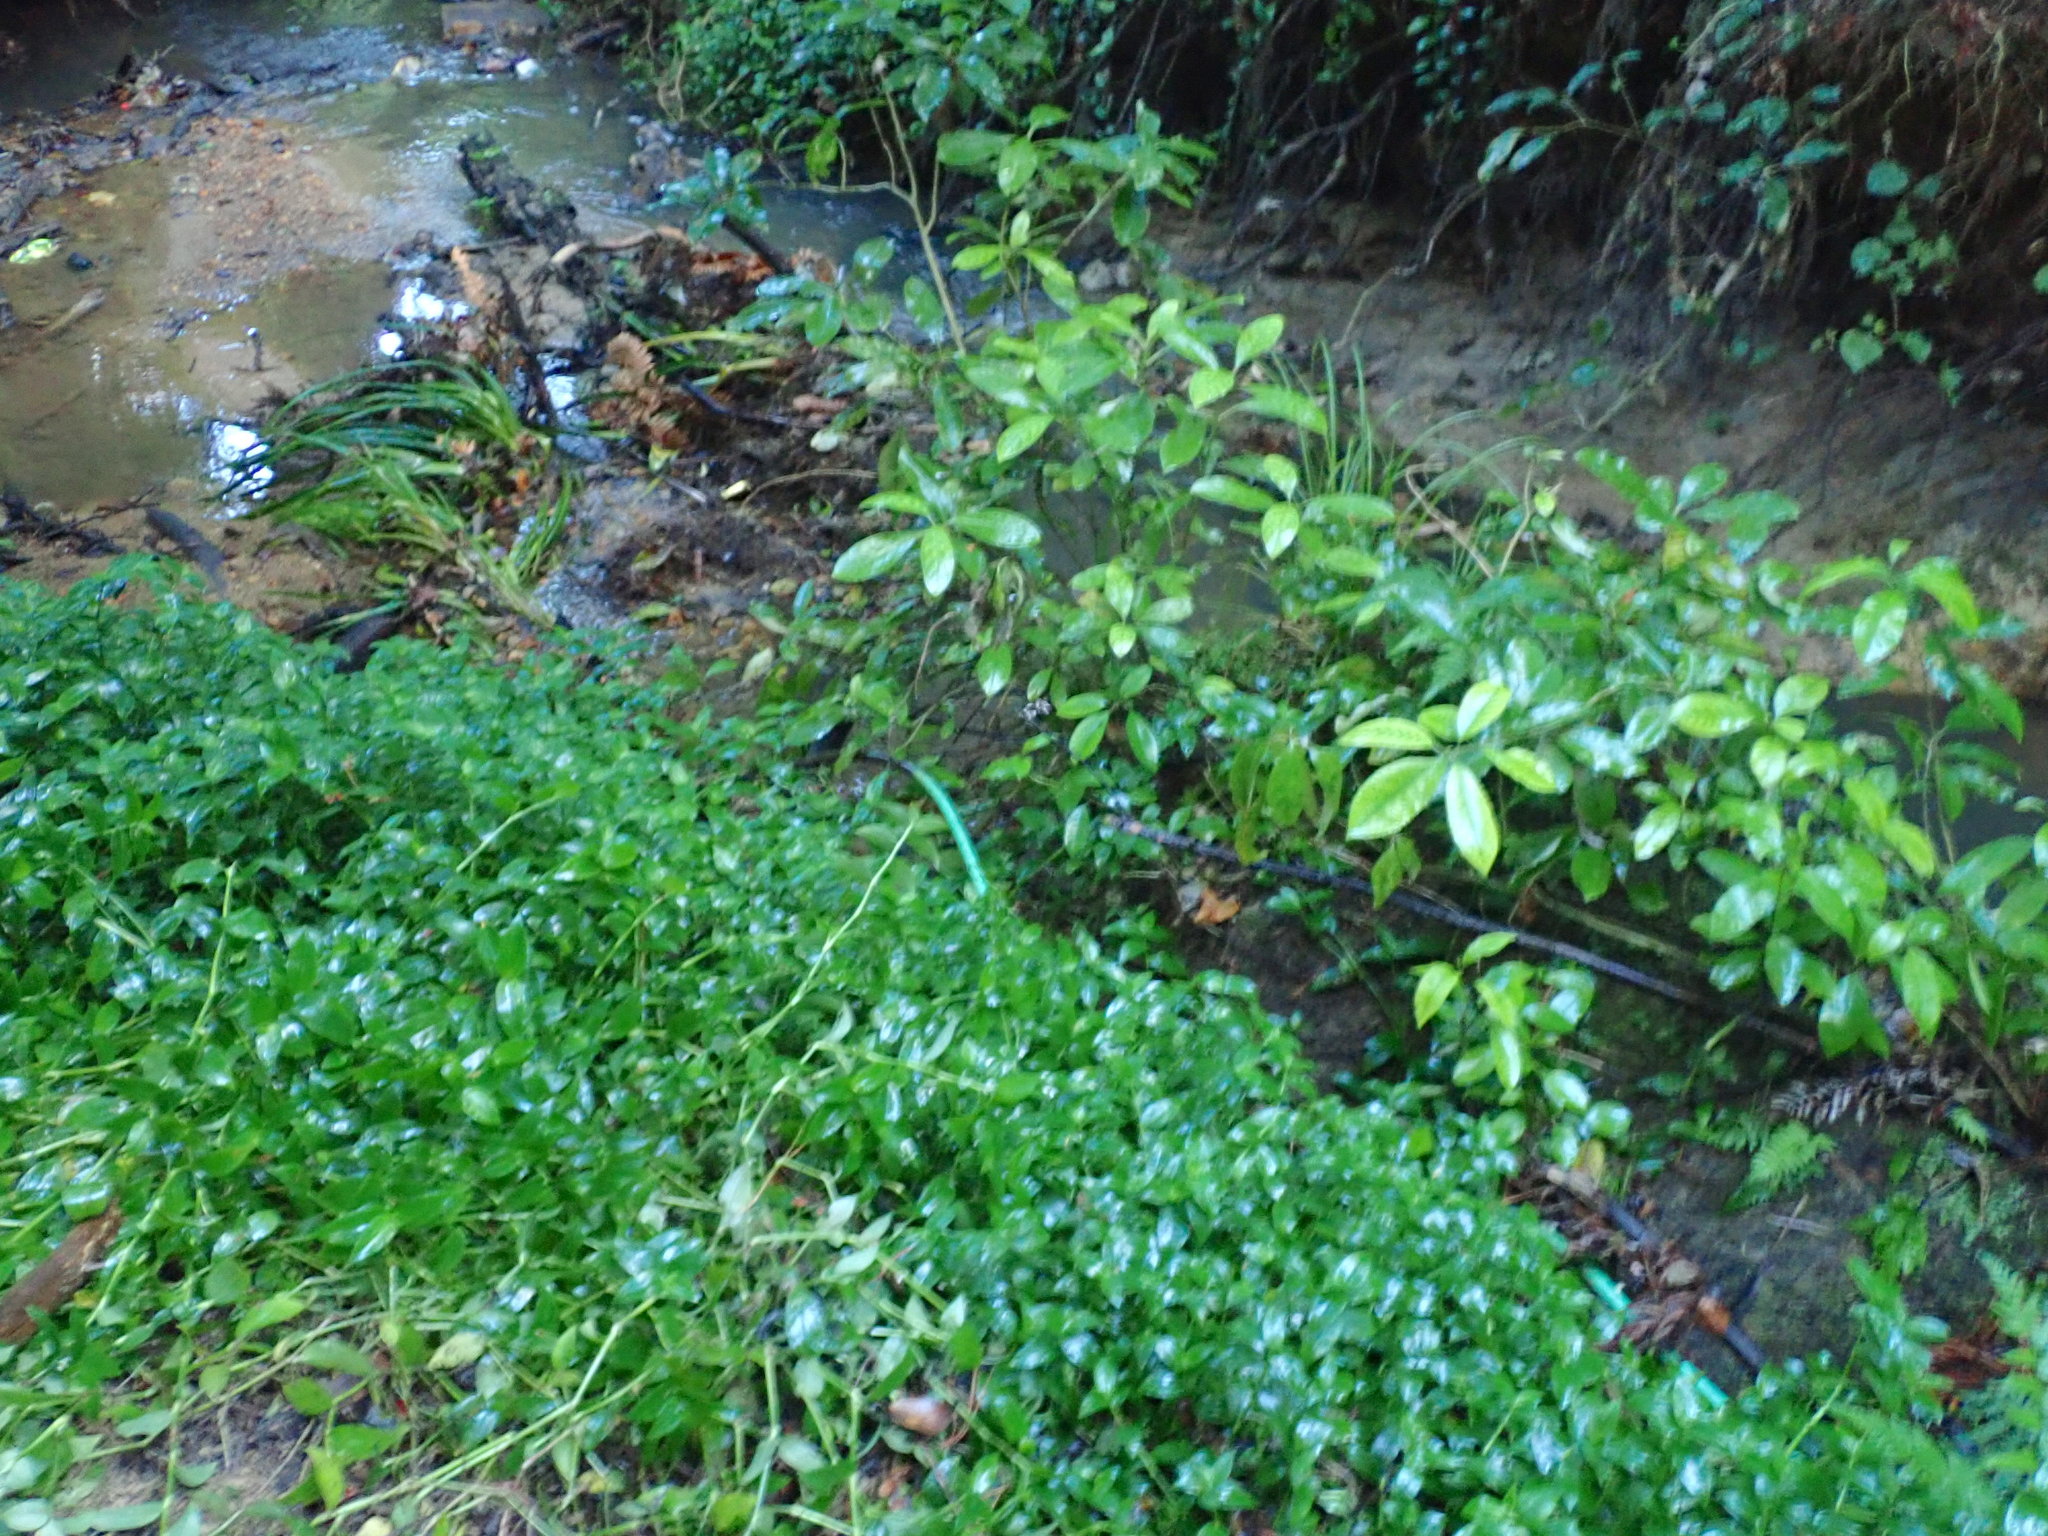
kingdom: Plantae
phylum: Tracheophyta
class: Magnoliopsida
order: Gentianales
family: Rubiaceae
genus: Coprosma
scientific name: Coprosma autumnalis
